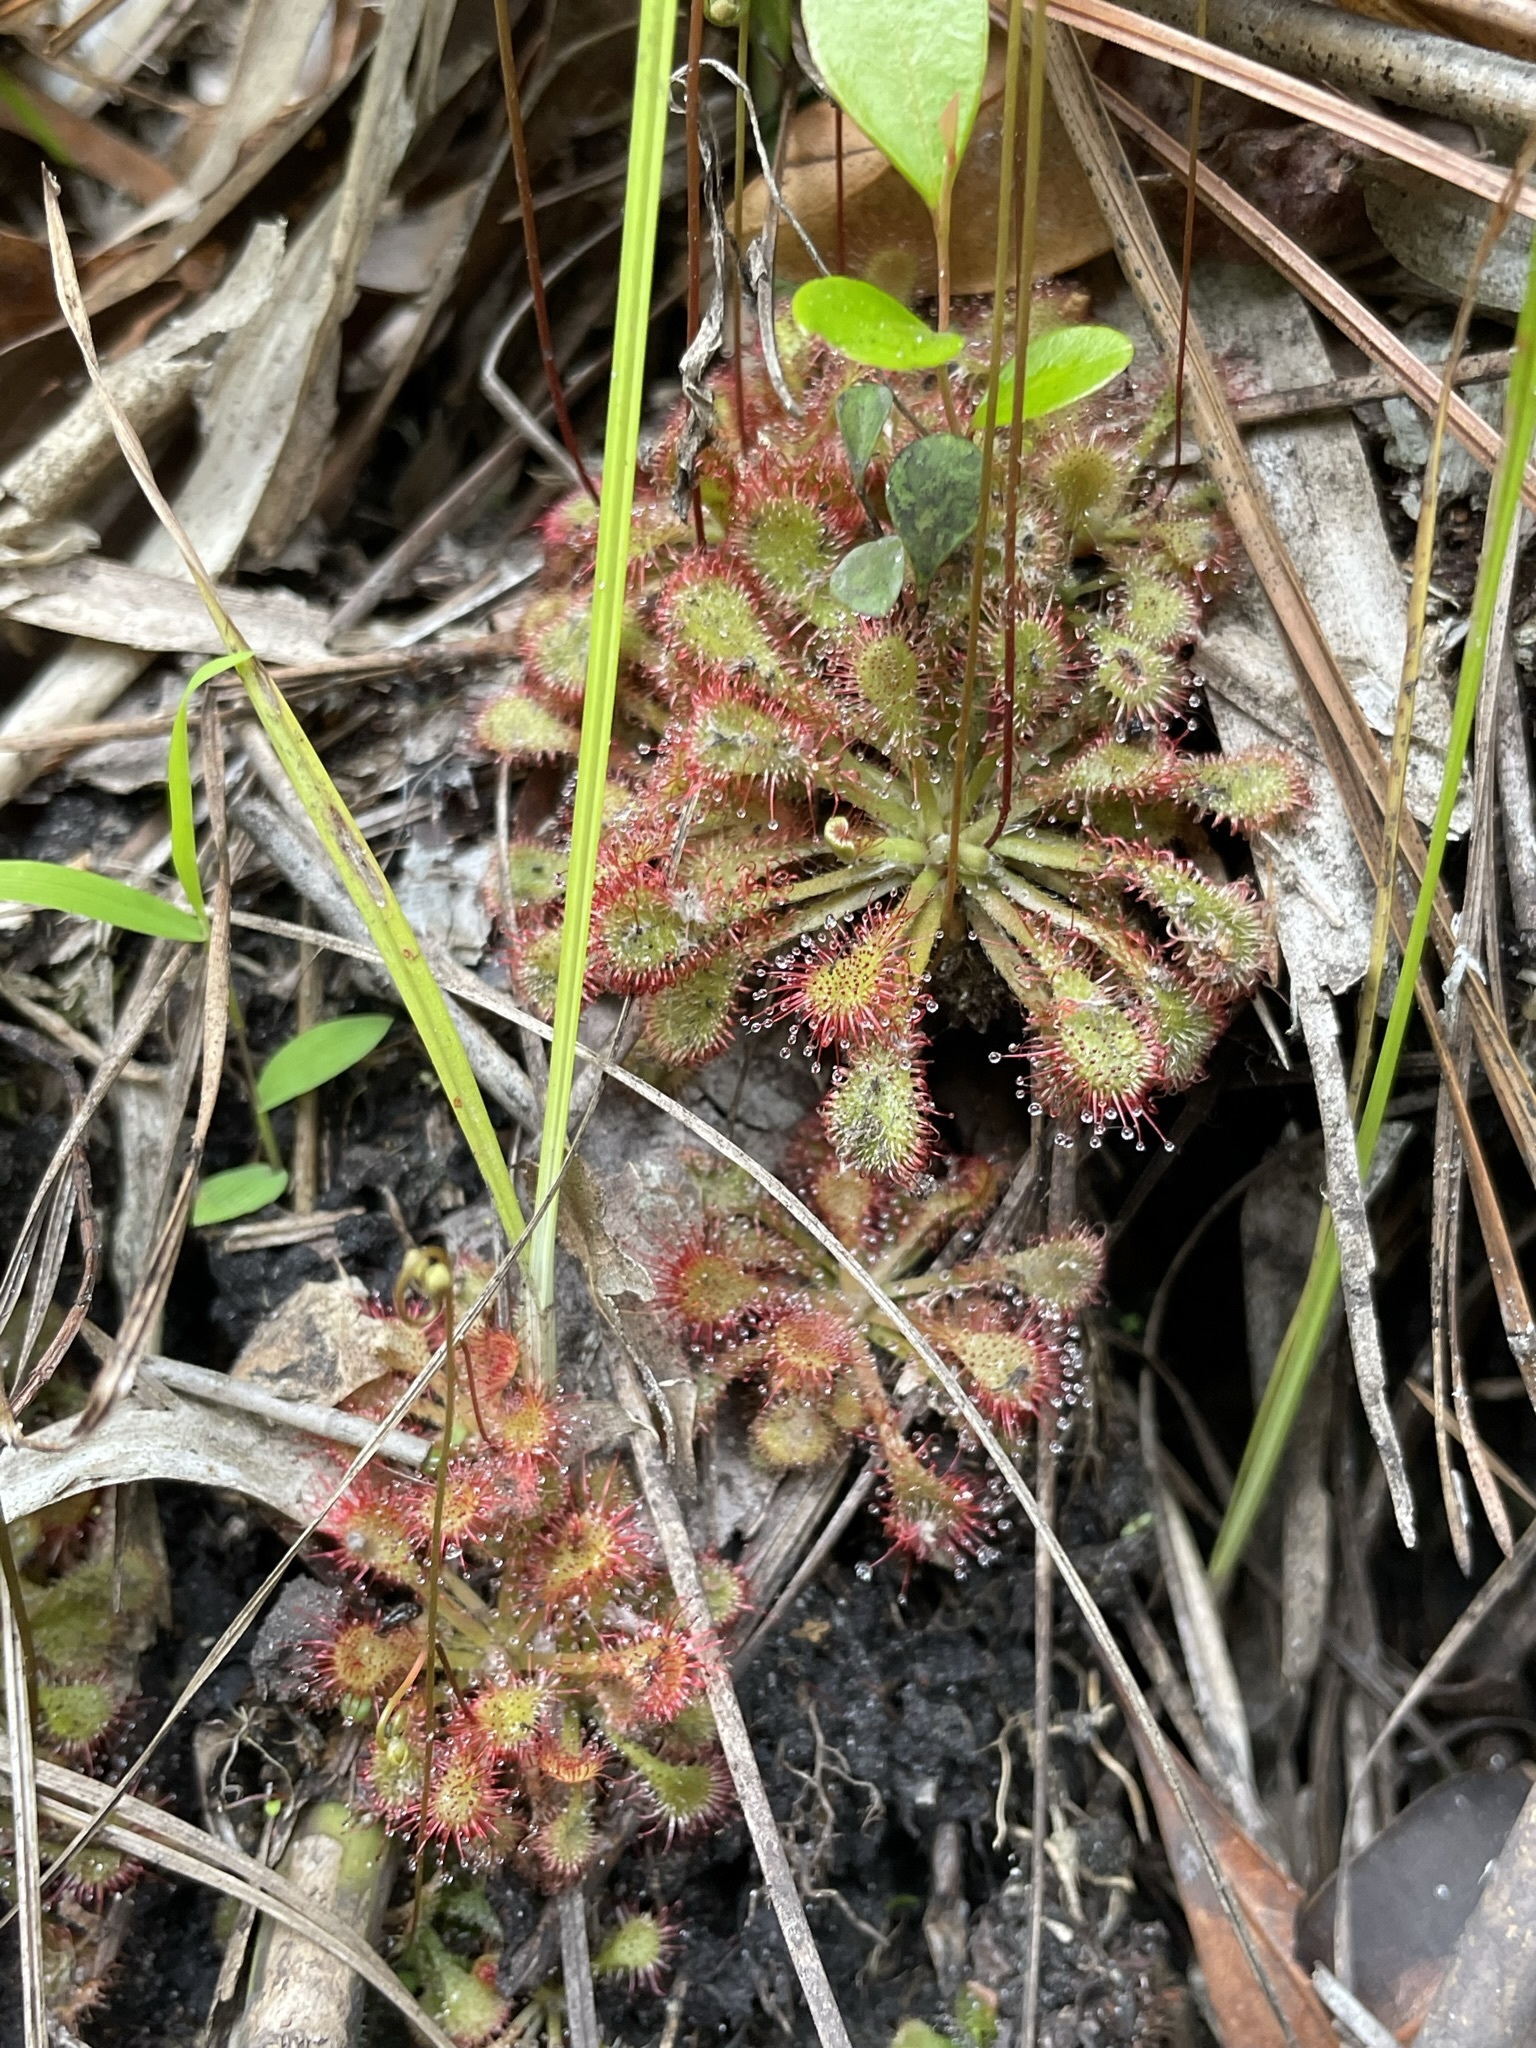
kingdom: Plantae
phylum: Tracheophyta
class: Magnoliopsida
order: Caryophyllales
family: Droseraceae
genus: Drosera
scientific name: Drosera capillaris
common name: Pink sundew
